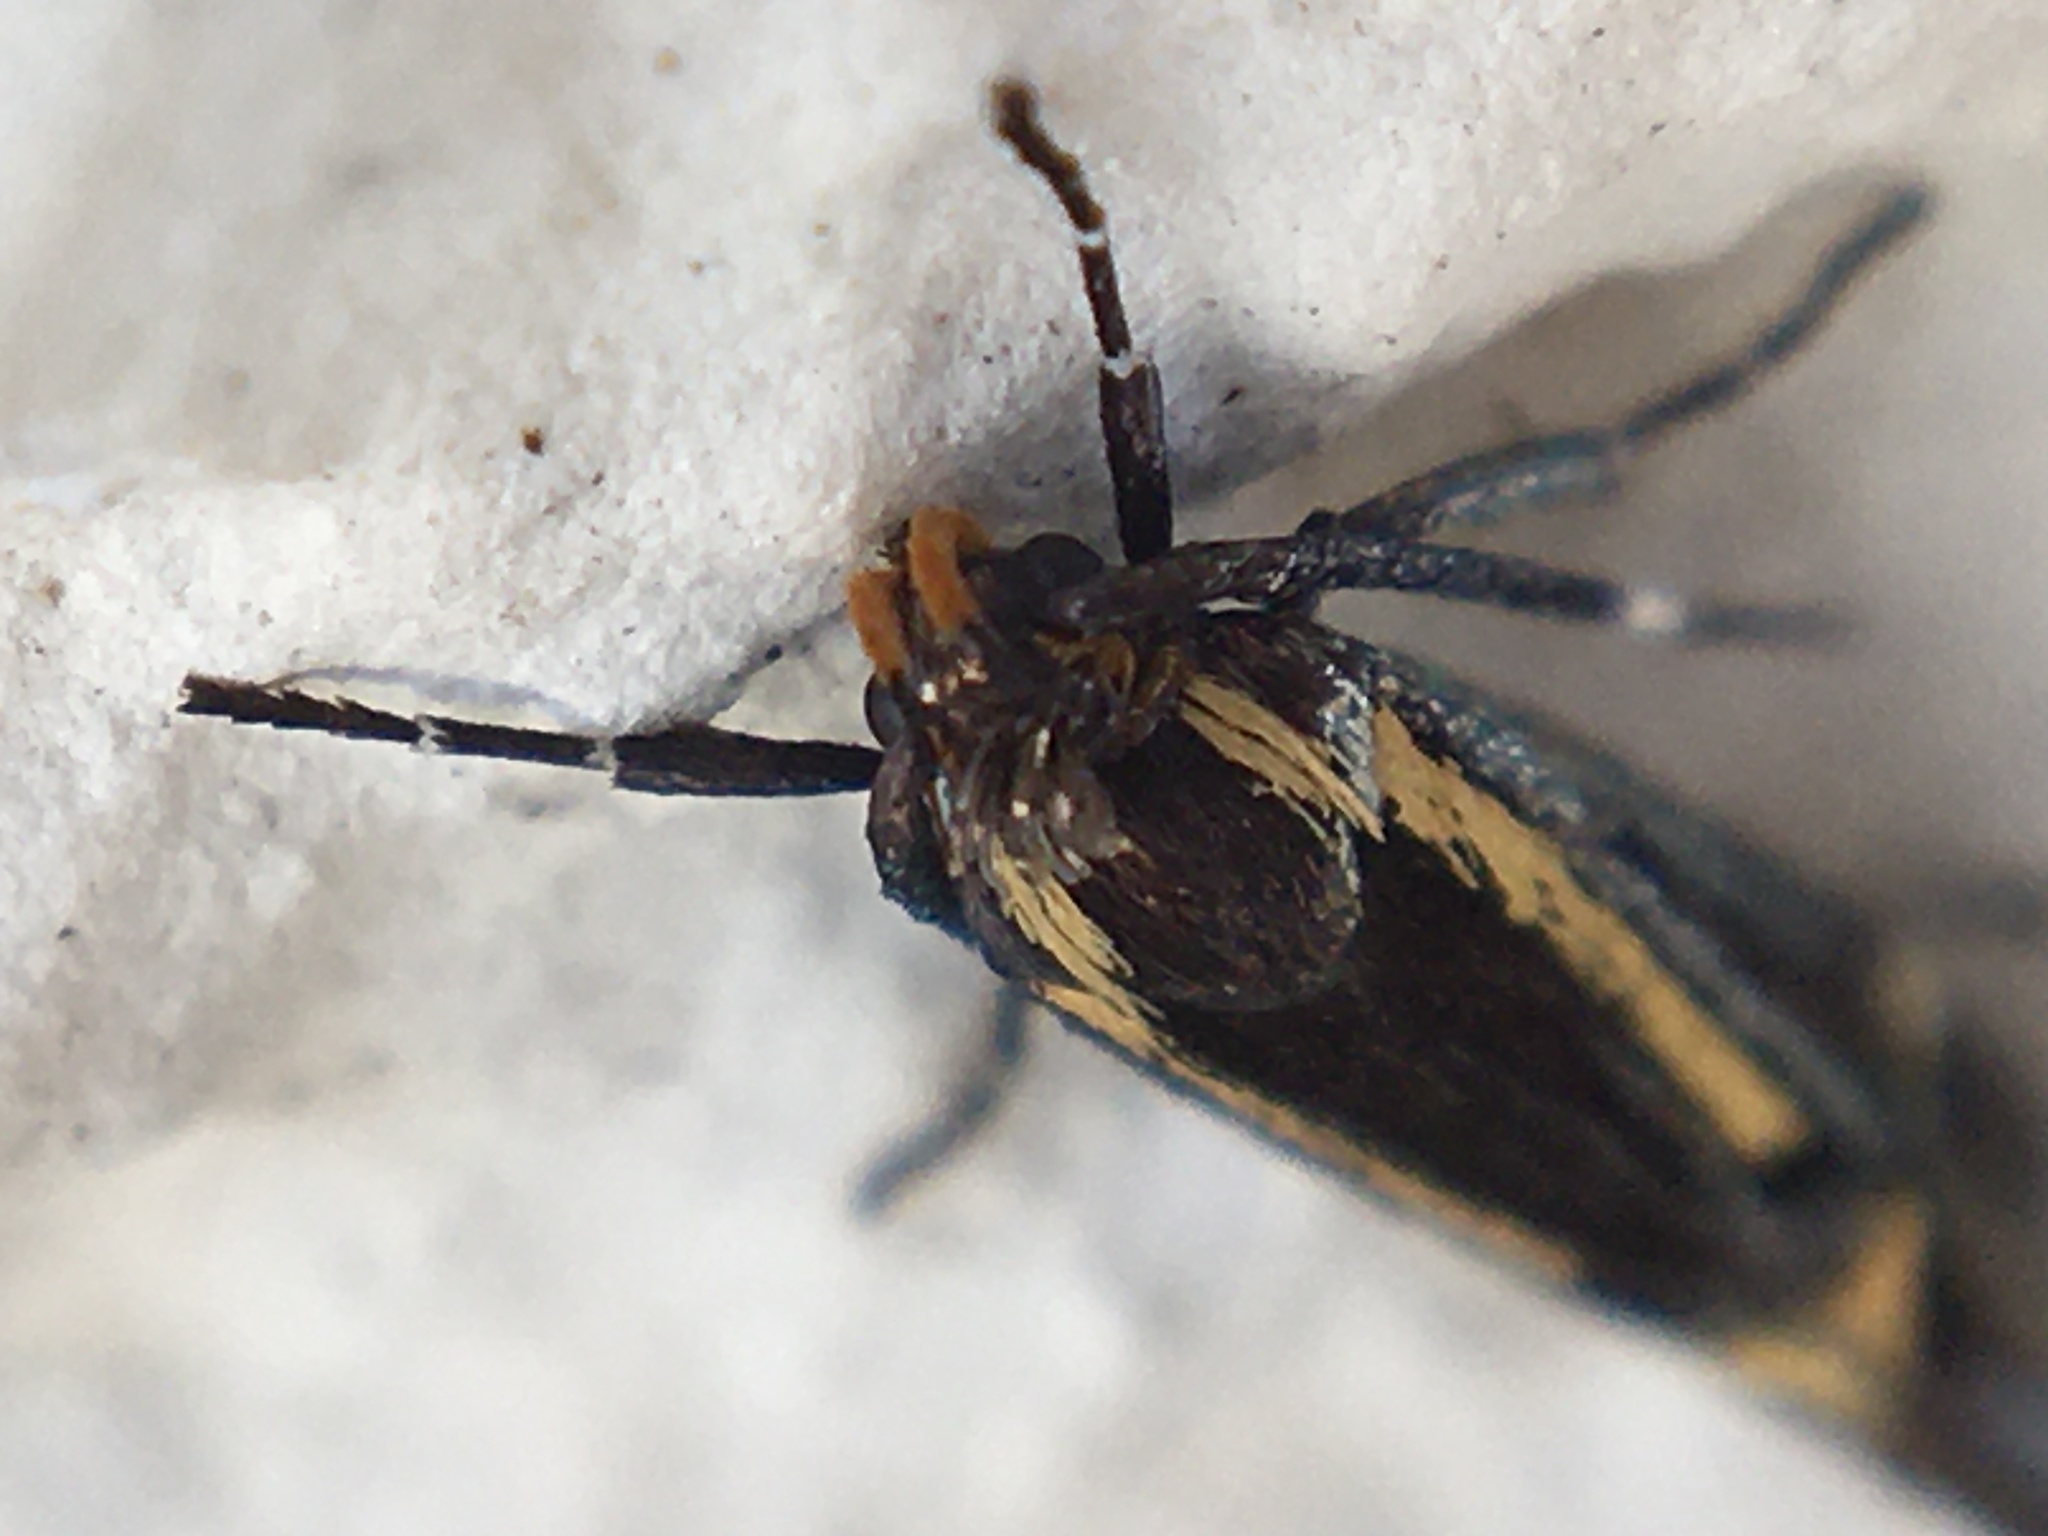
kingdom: Animalia
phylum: Arthropoda
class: Insecta
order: Lepidoptera
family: Oecophoridae
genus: Dafa
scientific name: Dafa Esperia sulphurella
